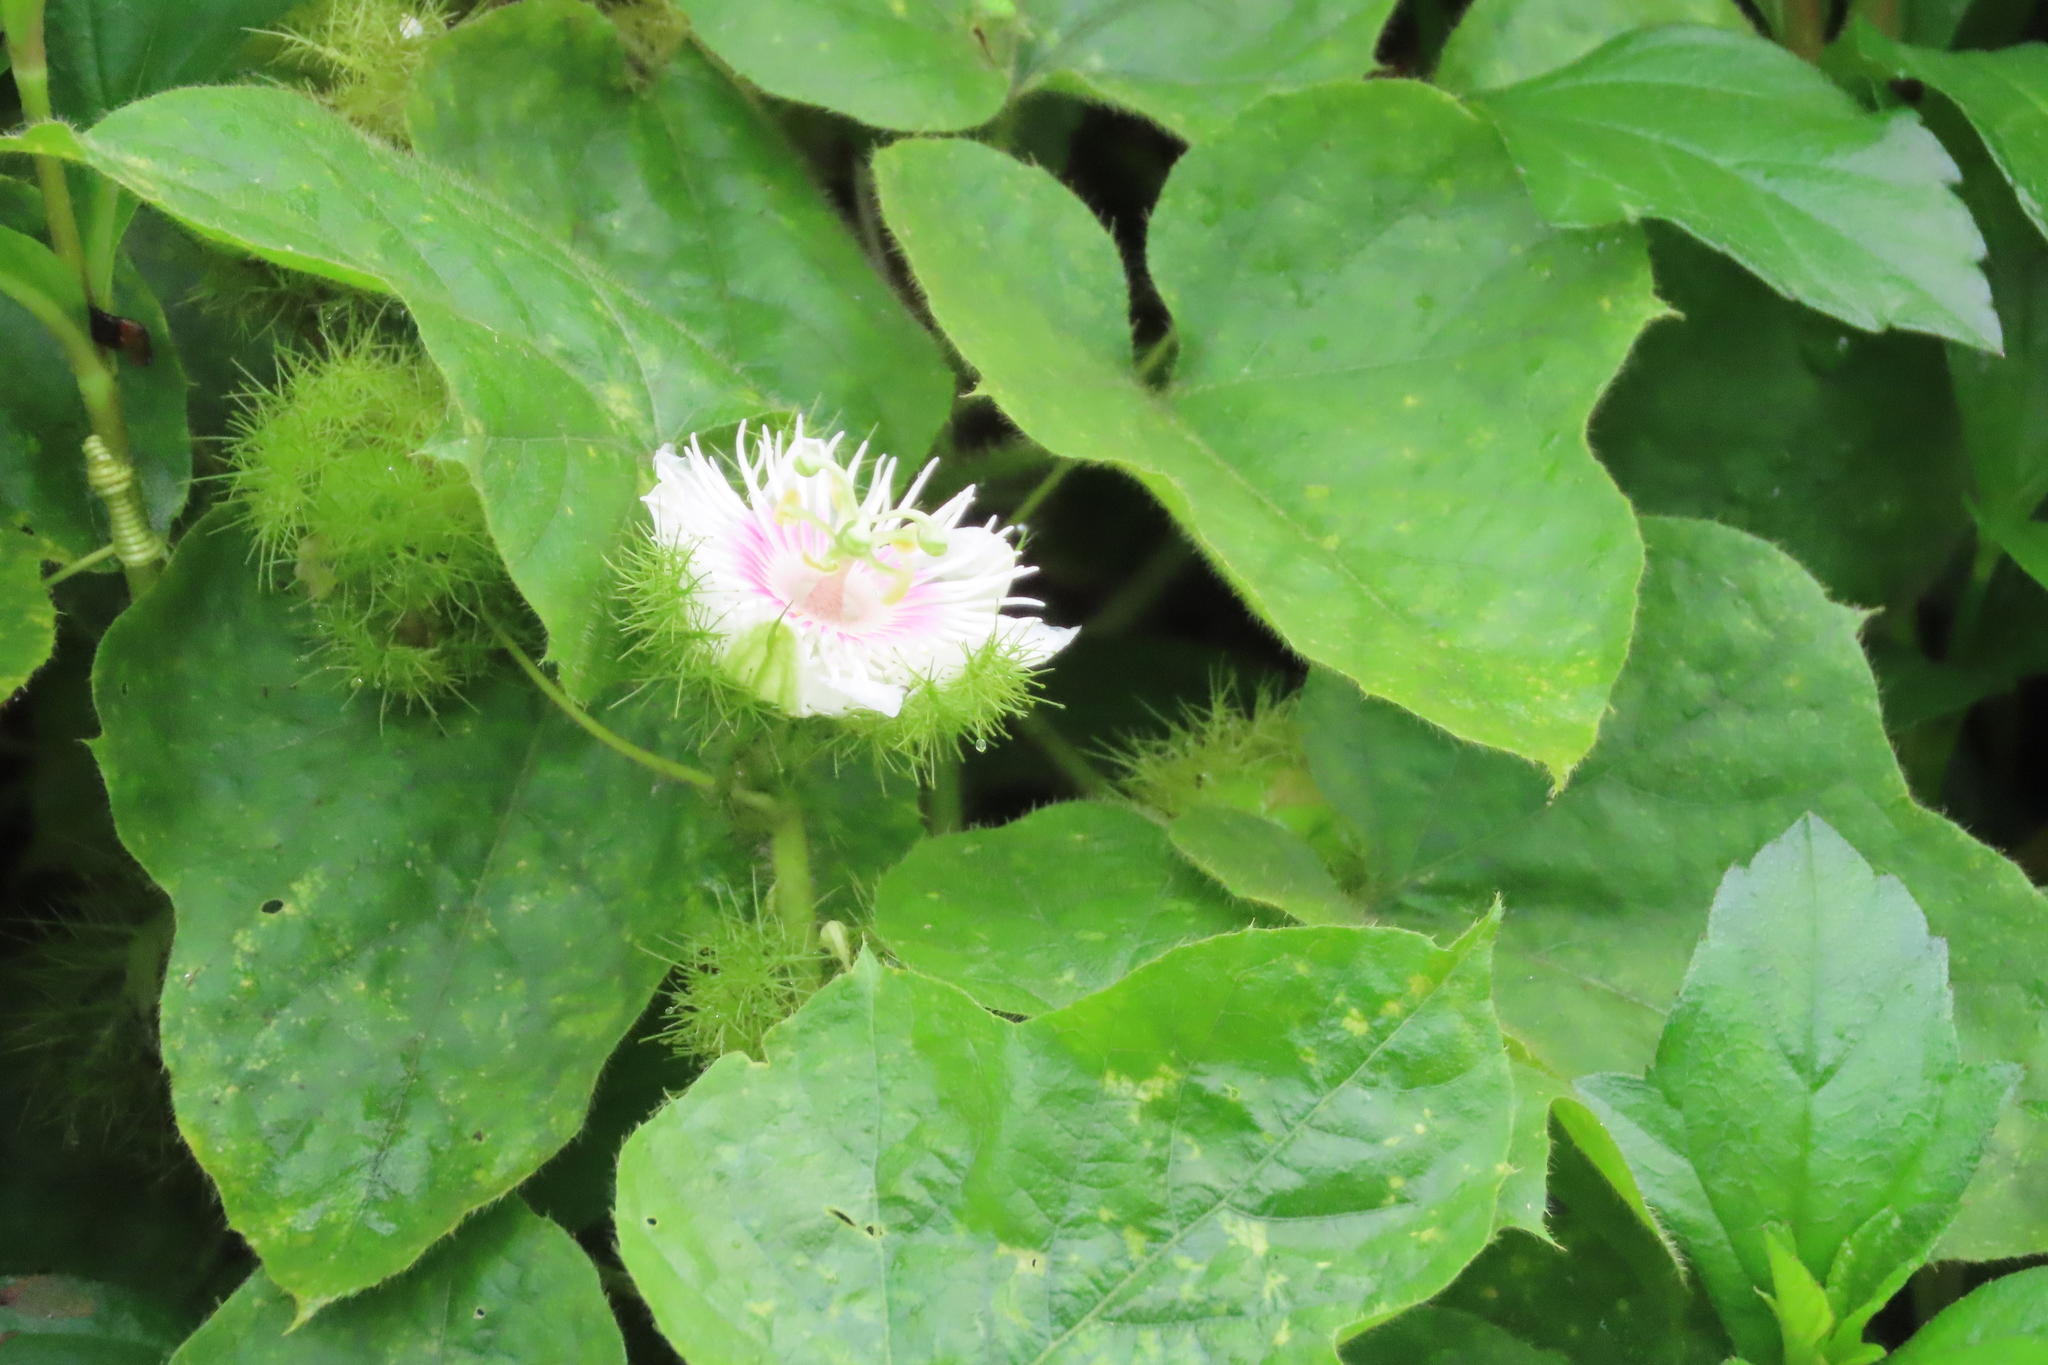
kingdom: Plantae
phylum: Tracheophyta
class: Magnoliopsida
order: Malpighiales
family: Passifloraceae
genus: Passiflora
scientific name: Passiflora foetida
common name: Fetid passionflower
